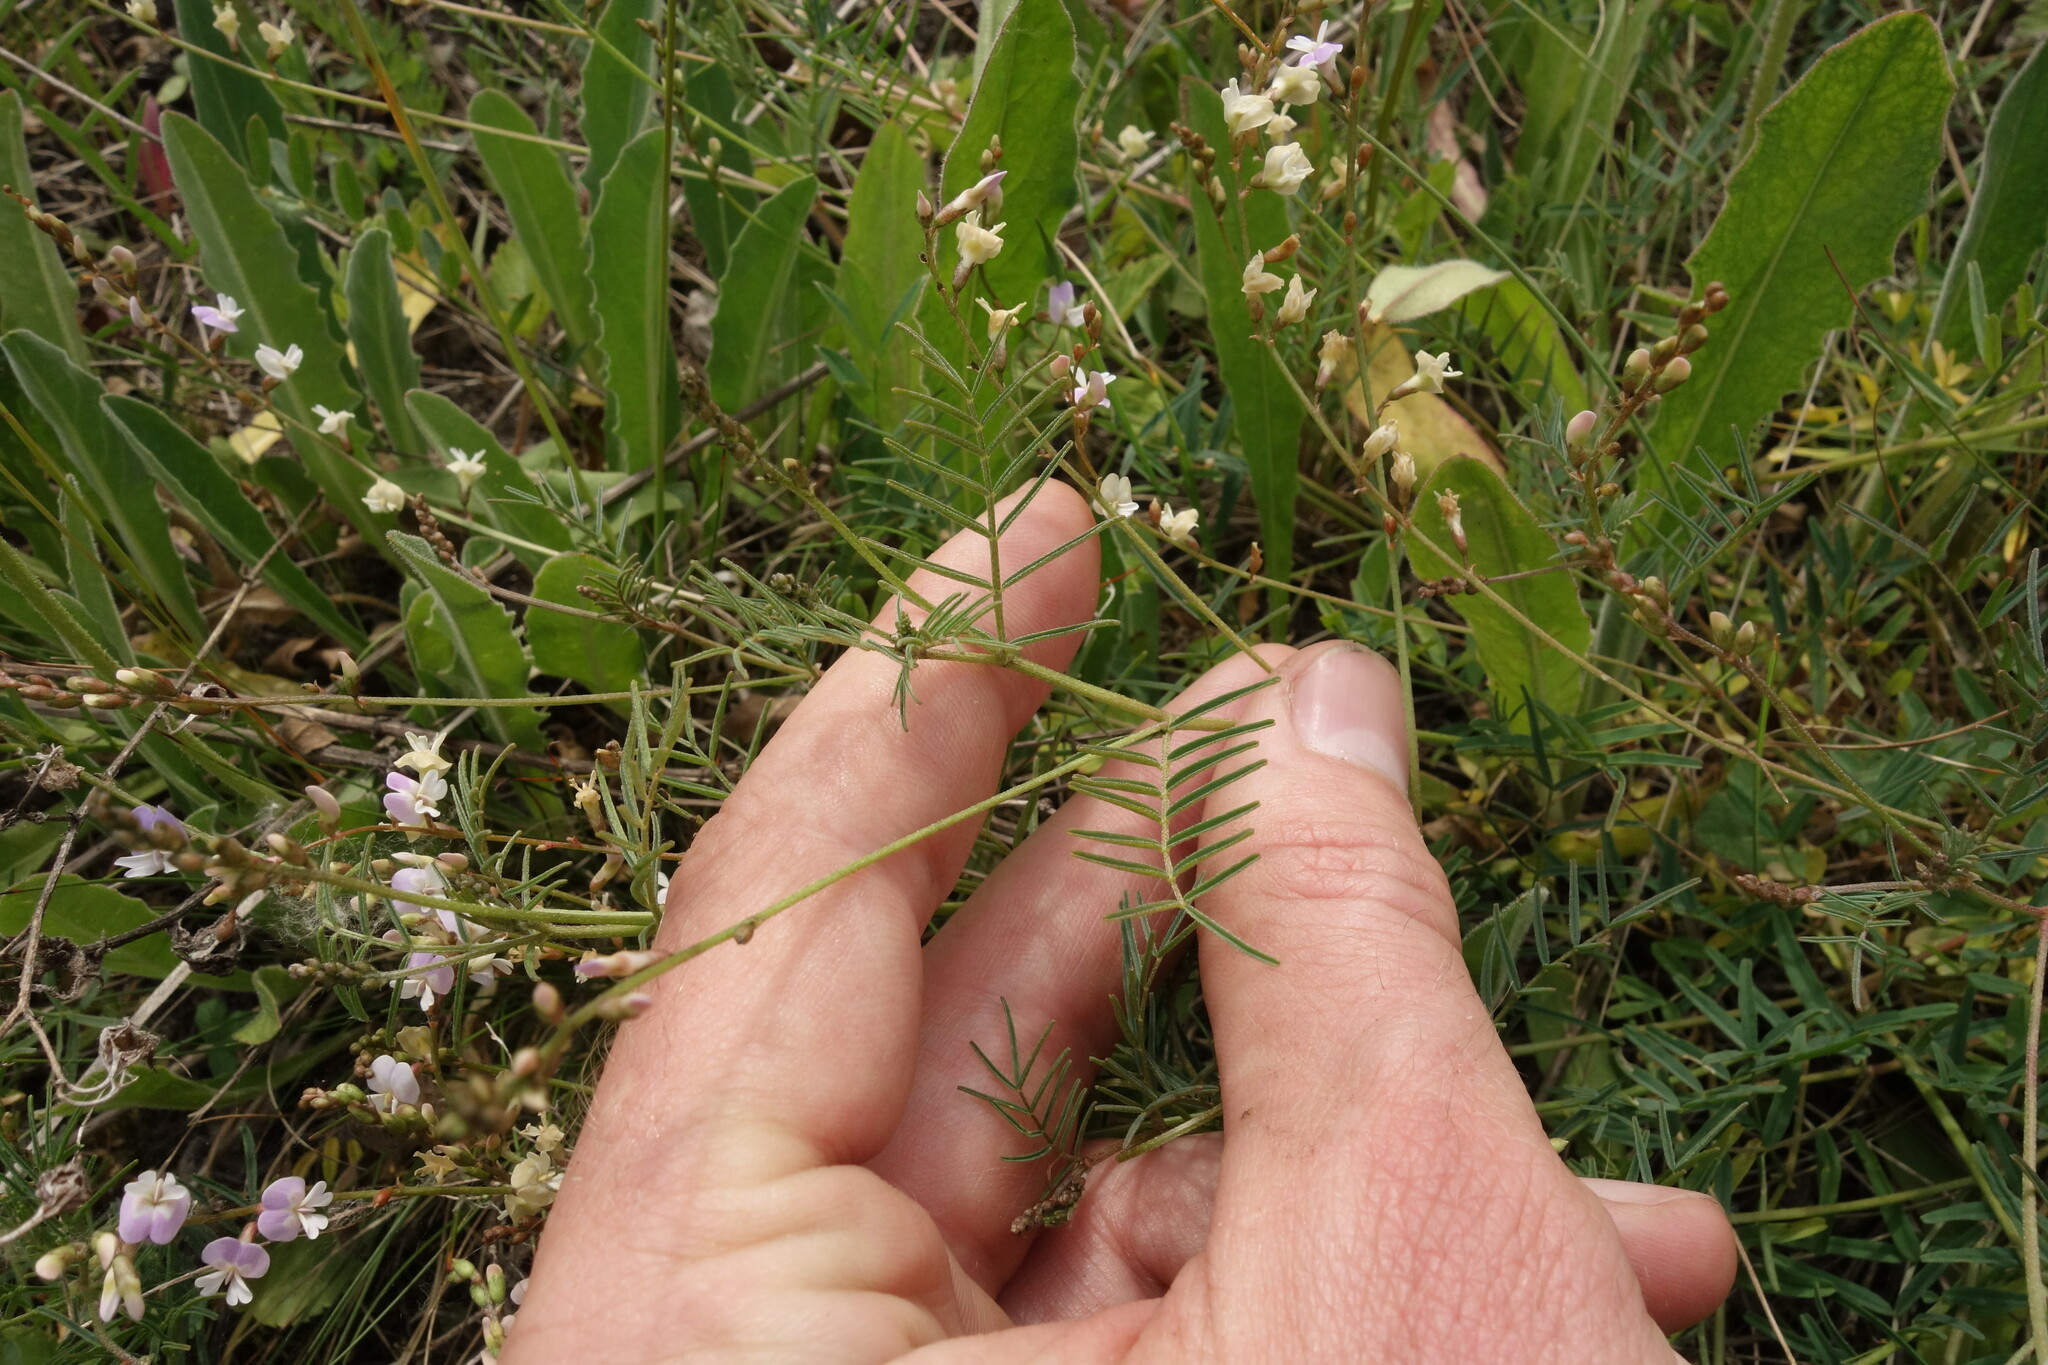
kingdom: Plantae
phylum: Tracheophyta
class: Magnoliopsida
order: Fabales
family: Fabaceae
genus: Astragalus
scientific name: Astragalus austriacus
